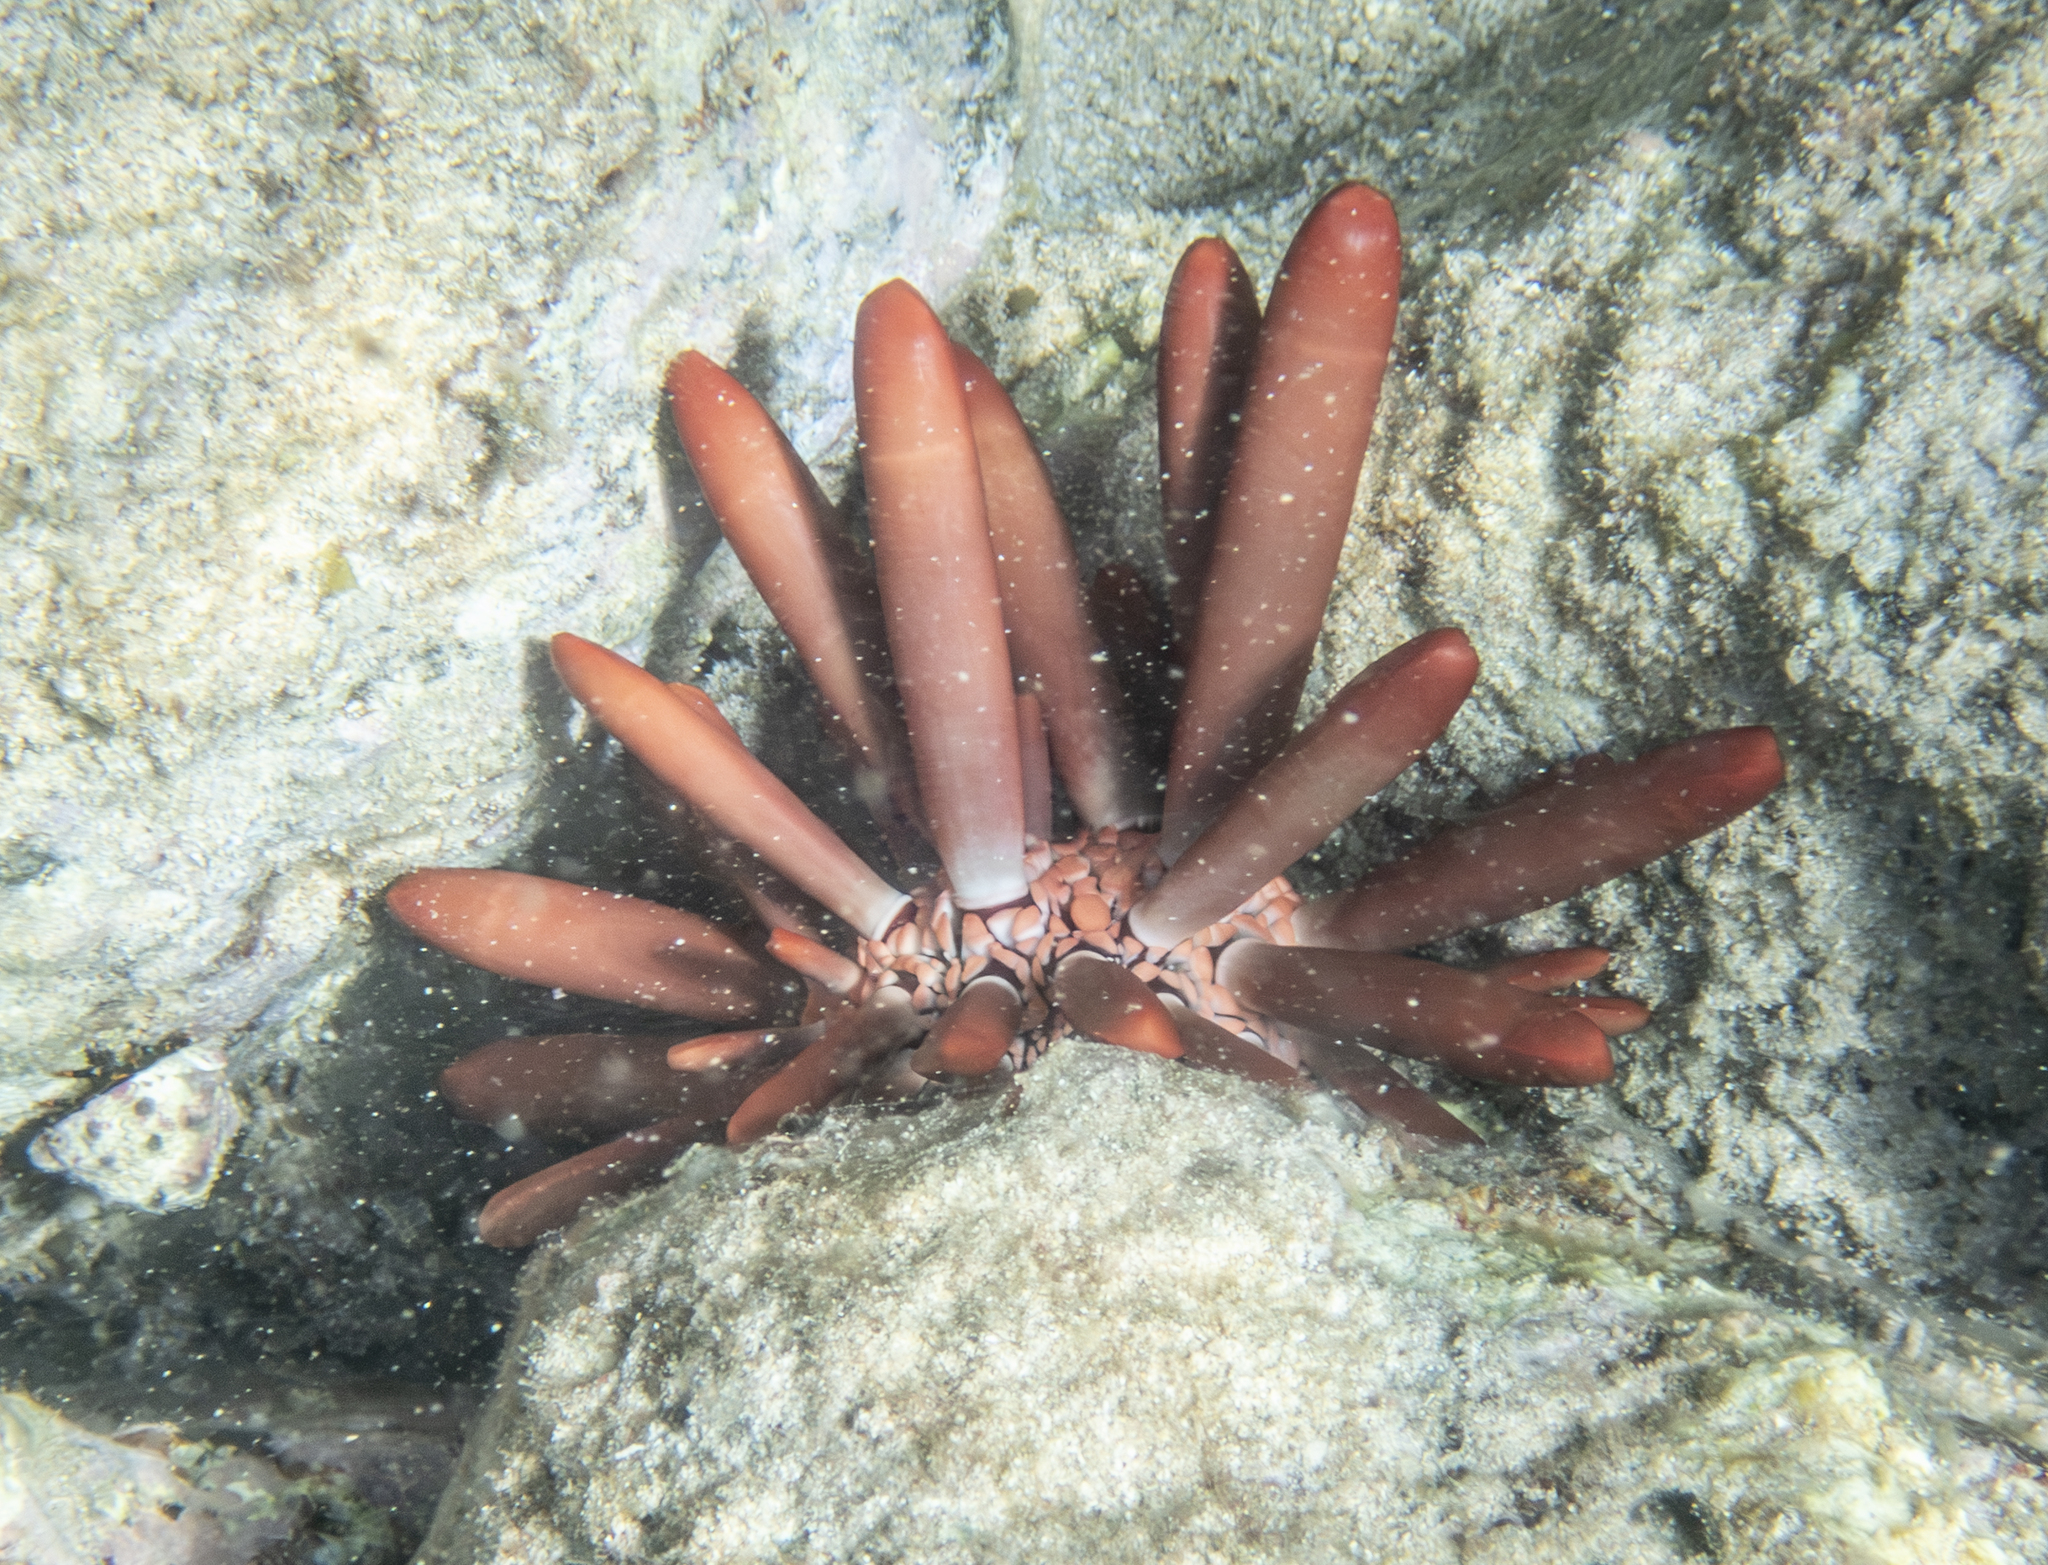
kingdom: Animalia
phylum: Echinodermata
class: Echinoidea
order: Camarodonta
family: Echinometridae
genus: Heterocentrotus
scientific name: Heterocentrotus mamillatus
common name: Slate pencil urchin
